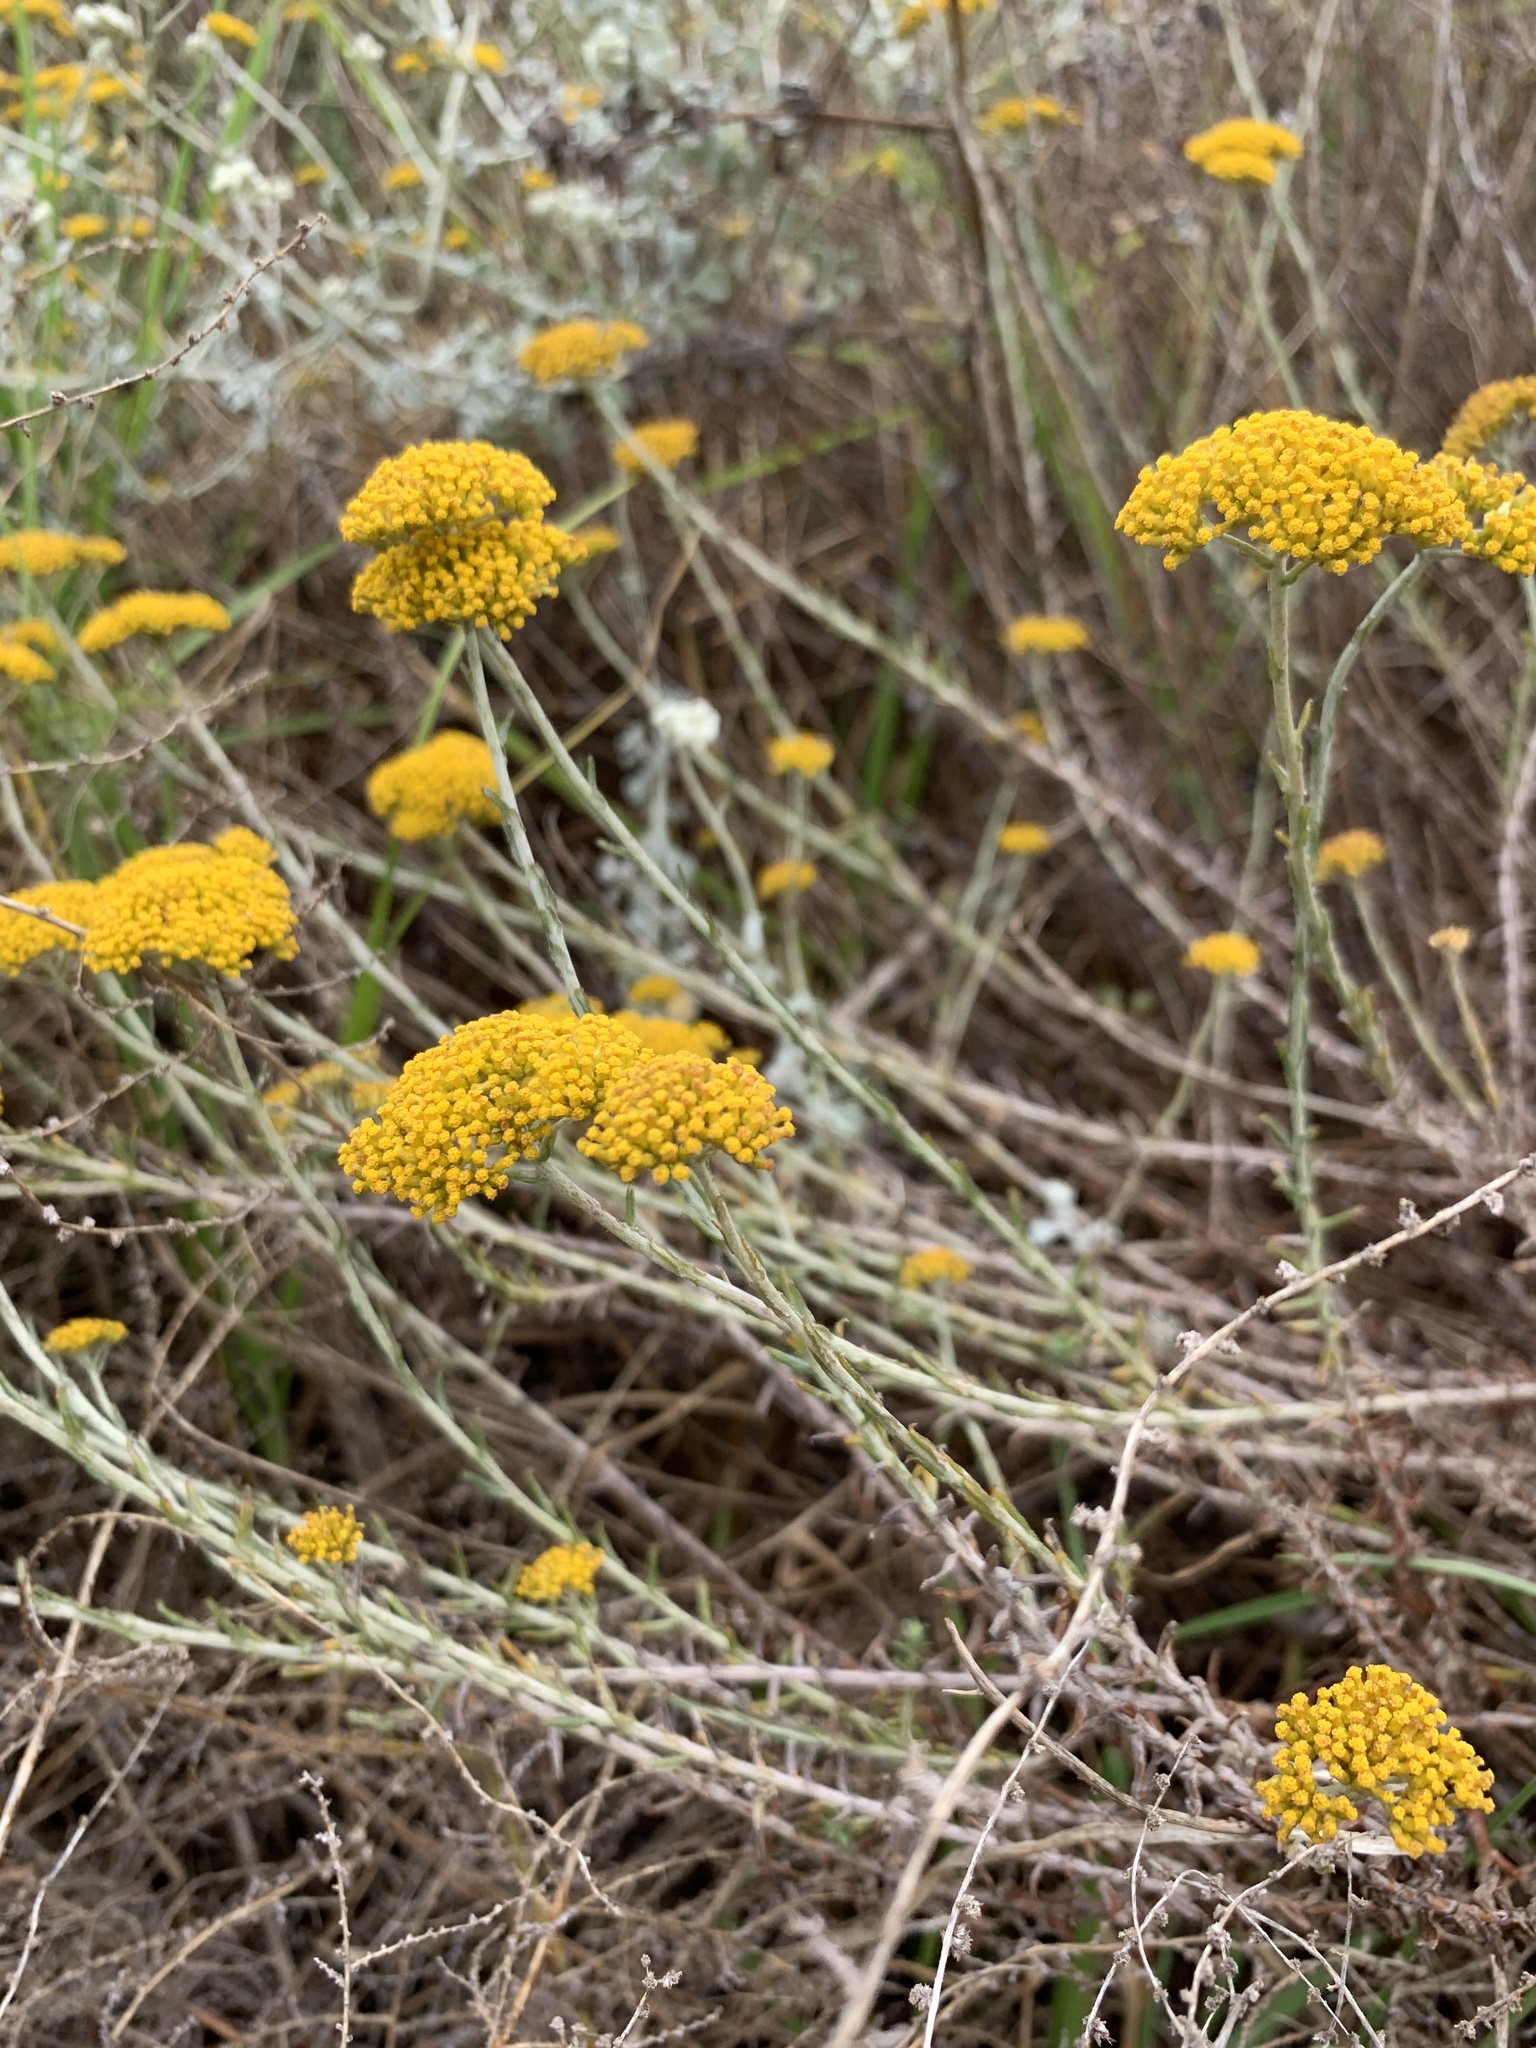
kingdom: Plantae
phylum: Tracheophyta
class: Magnoliopsida
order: Asterales
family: Asteraceae
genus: Helichrysum
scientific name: Helichrysum cymosum
